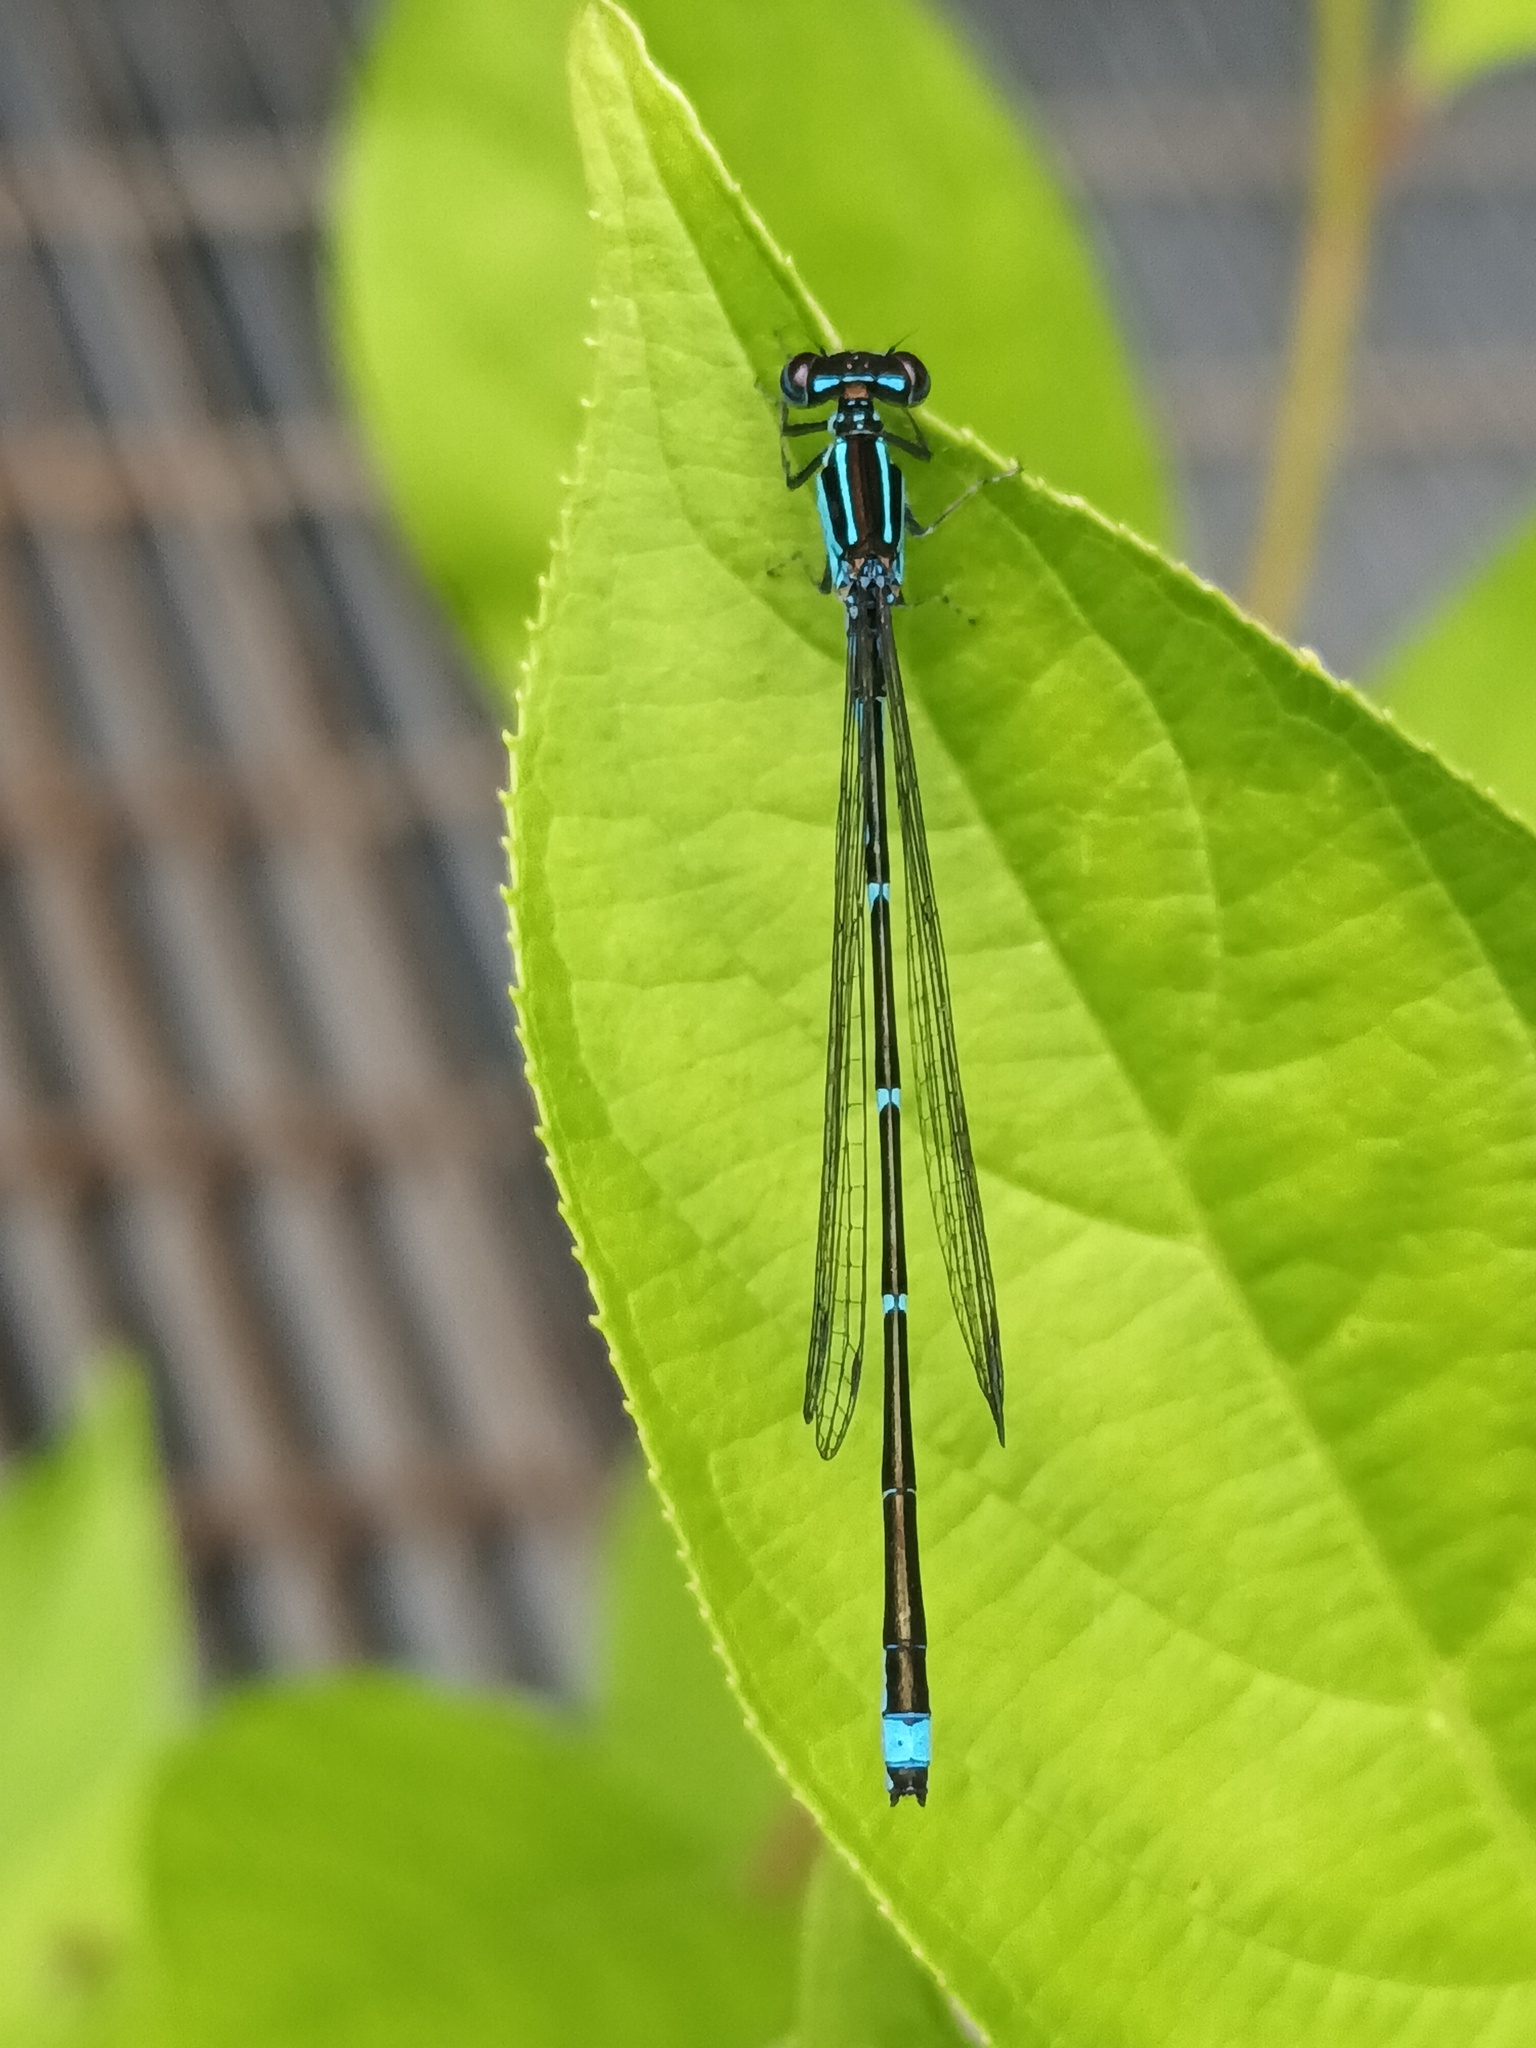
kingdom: Animalia
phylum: Arthropoda
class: Insecta
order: Odonata
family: Coenagrionidae
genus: Enallagma
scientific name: Enallagma exsulans
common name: Stream bluet
